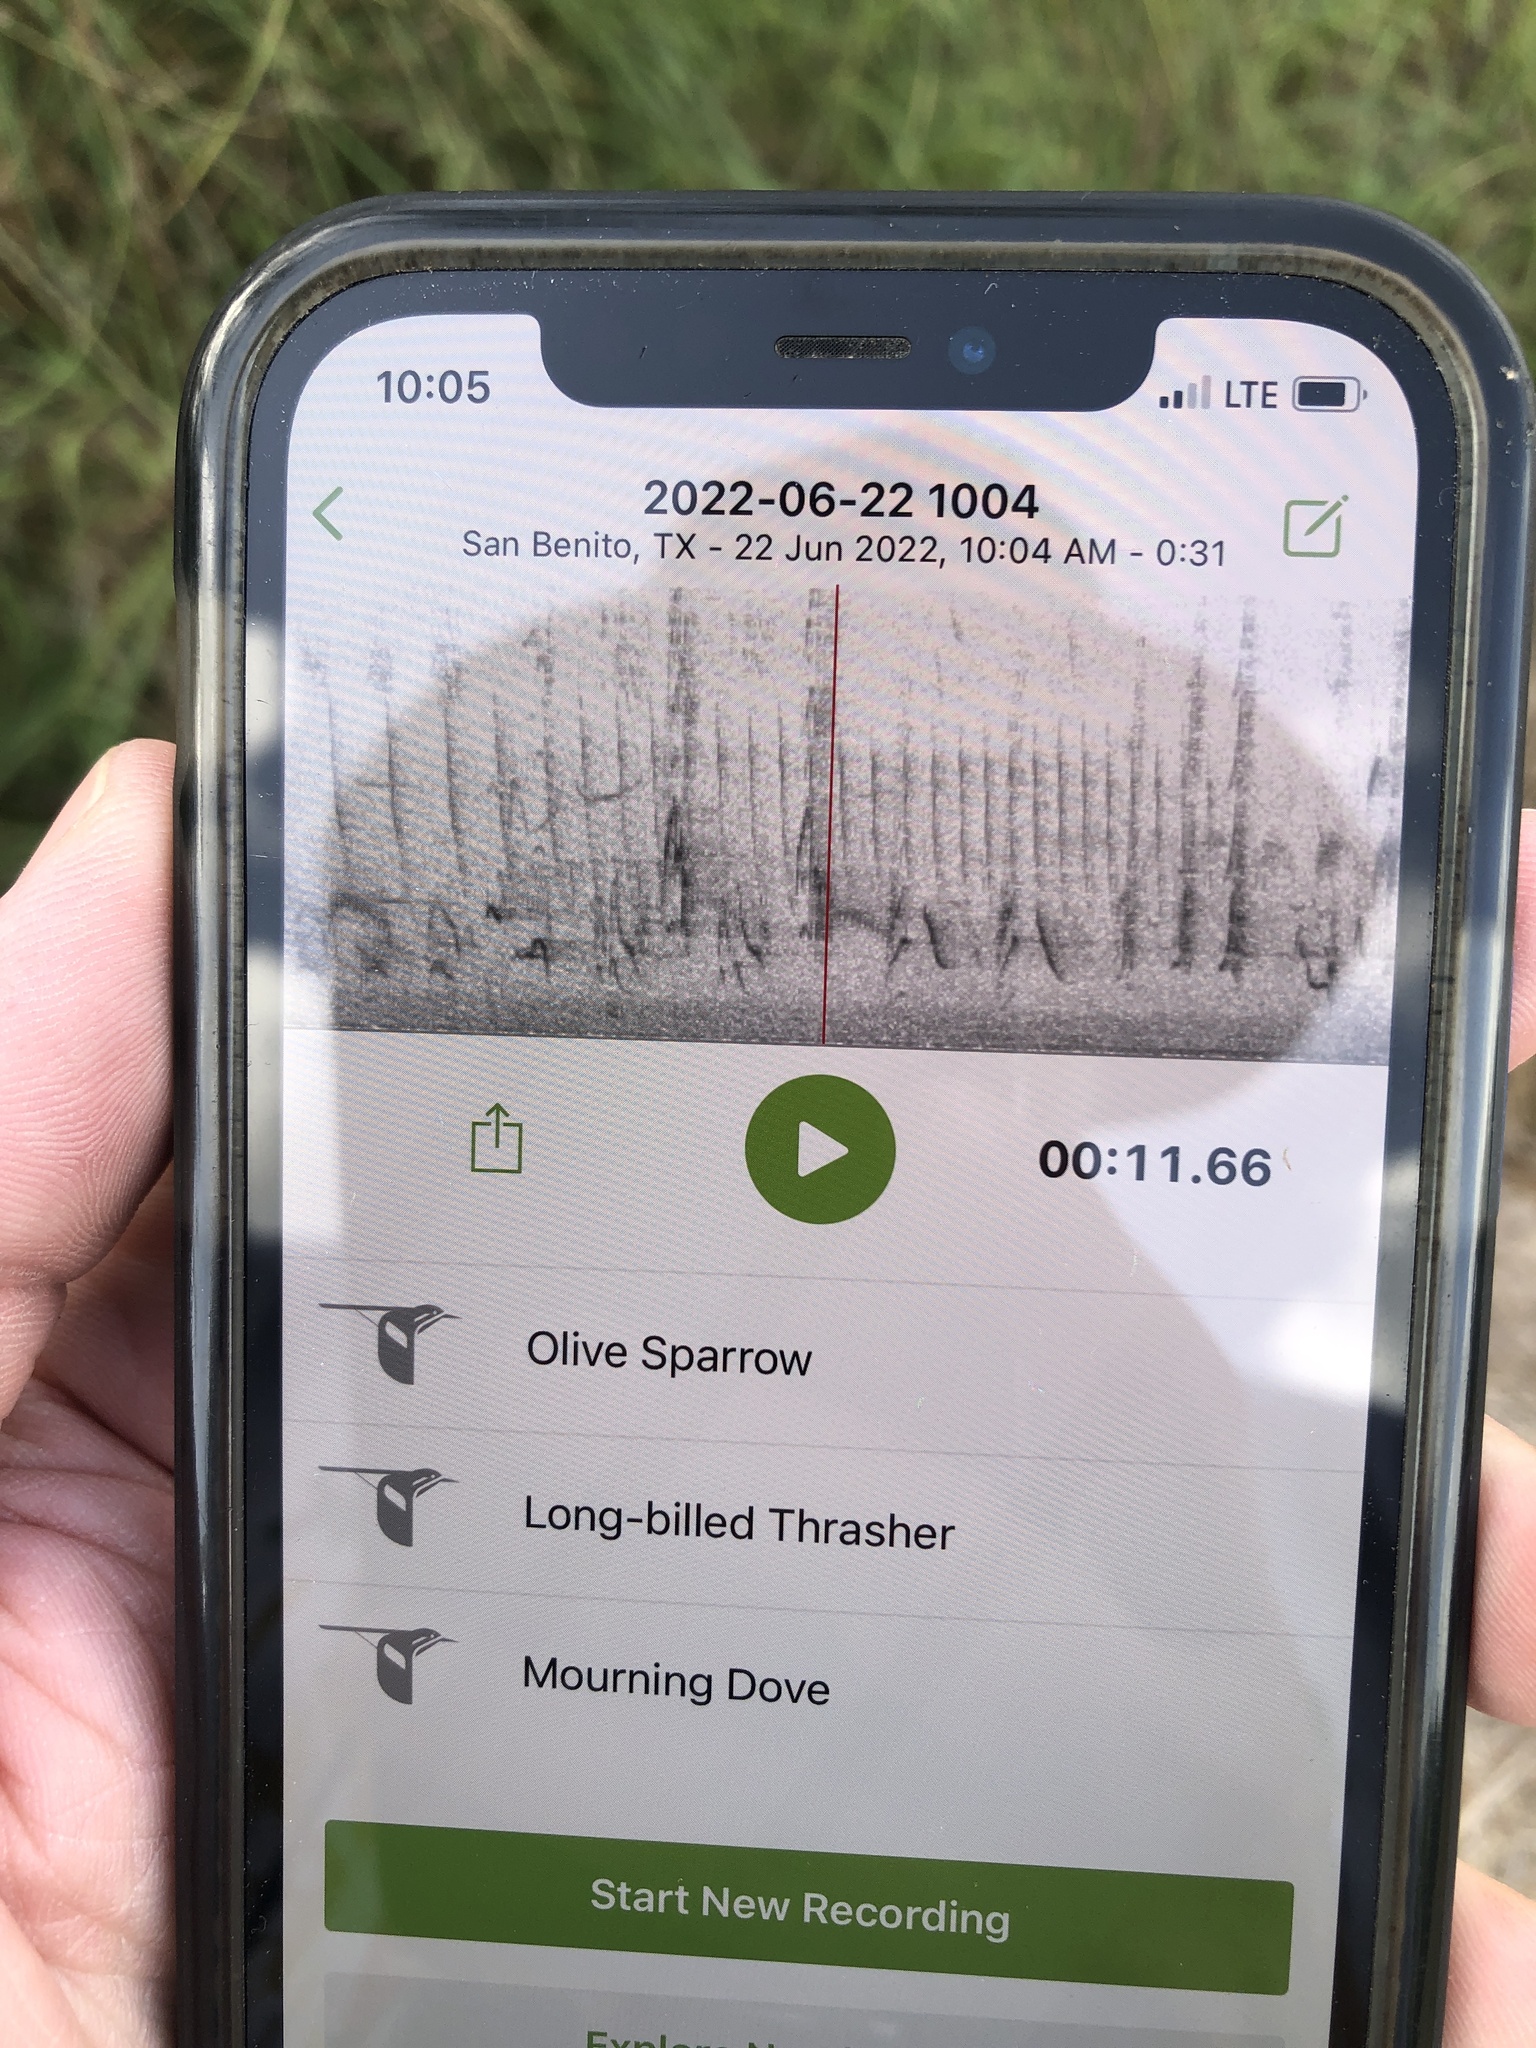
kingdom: Animalia
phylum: Chordata
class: Aves
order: Passeriformes
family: Passerellidae
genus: Arremonops
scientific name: Arremonops rufivirgatus
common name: Olive sparrow
